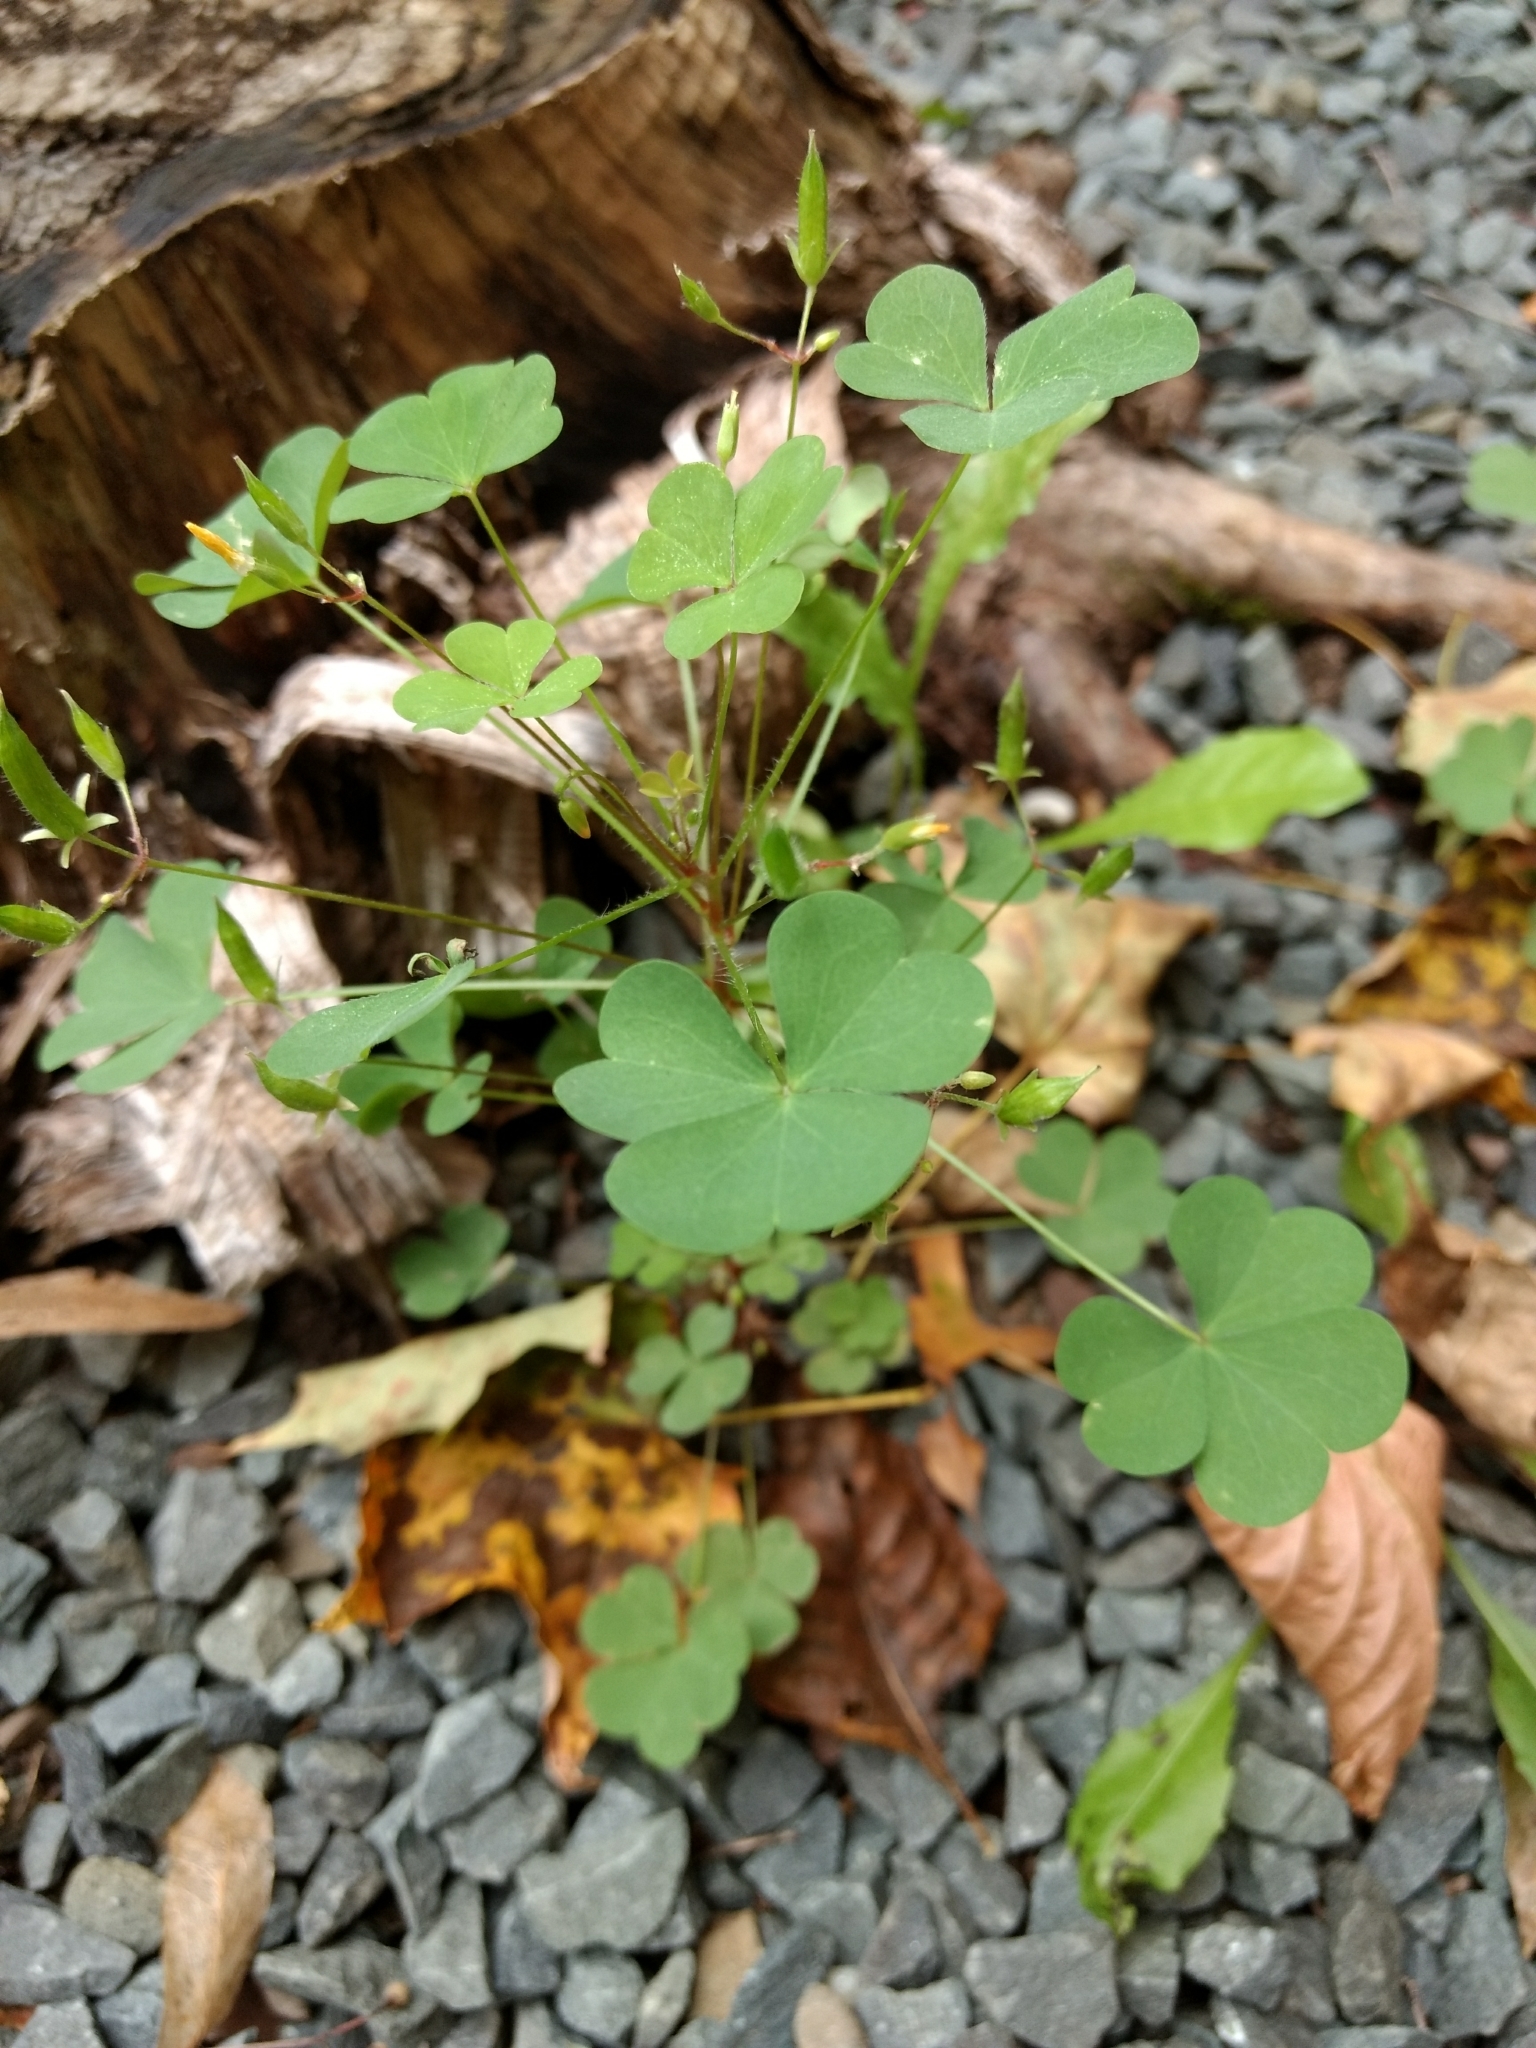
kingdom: Plantae
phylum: Tracheophyta
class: Magnoliopsida
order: Oxalidales
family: Oxalidaceae
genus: Oxalis
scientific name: Oxalis stricta
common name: Upright yellow-sorrel
